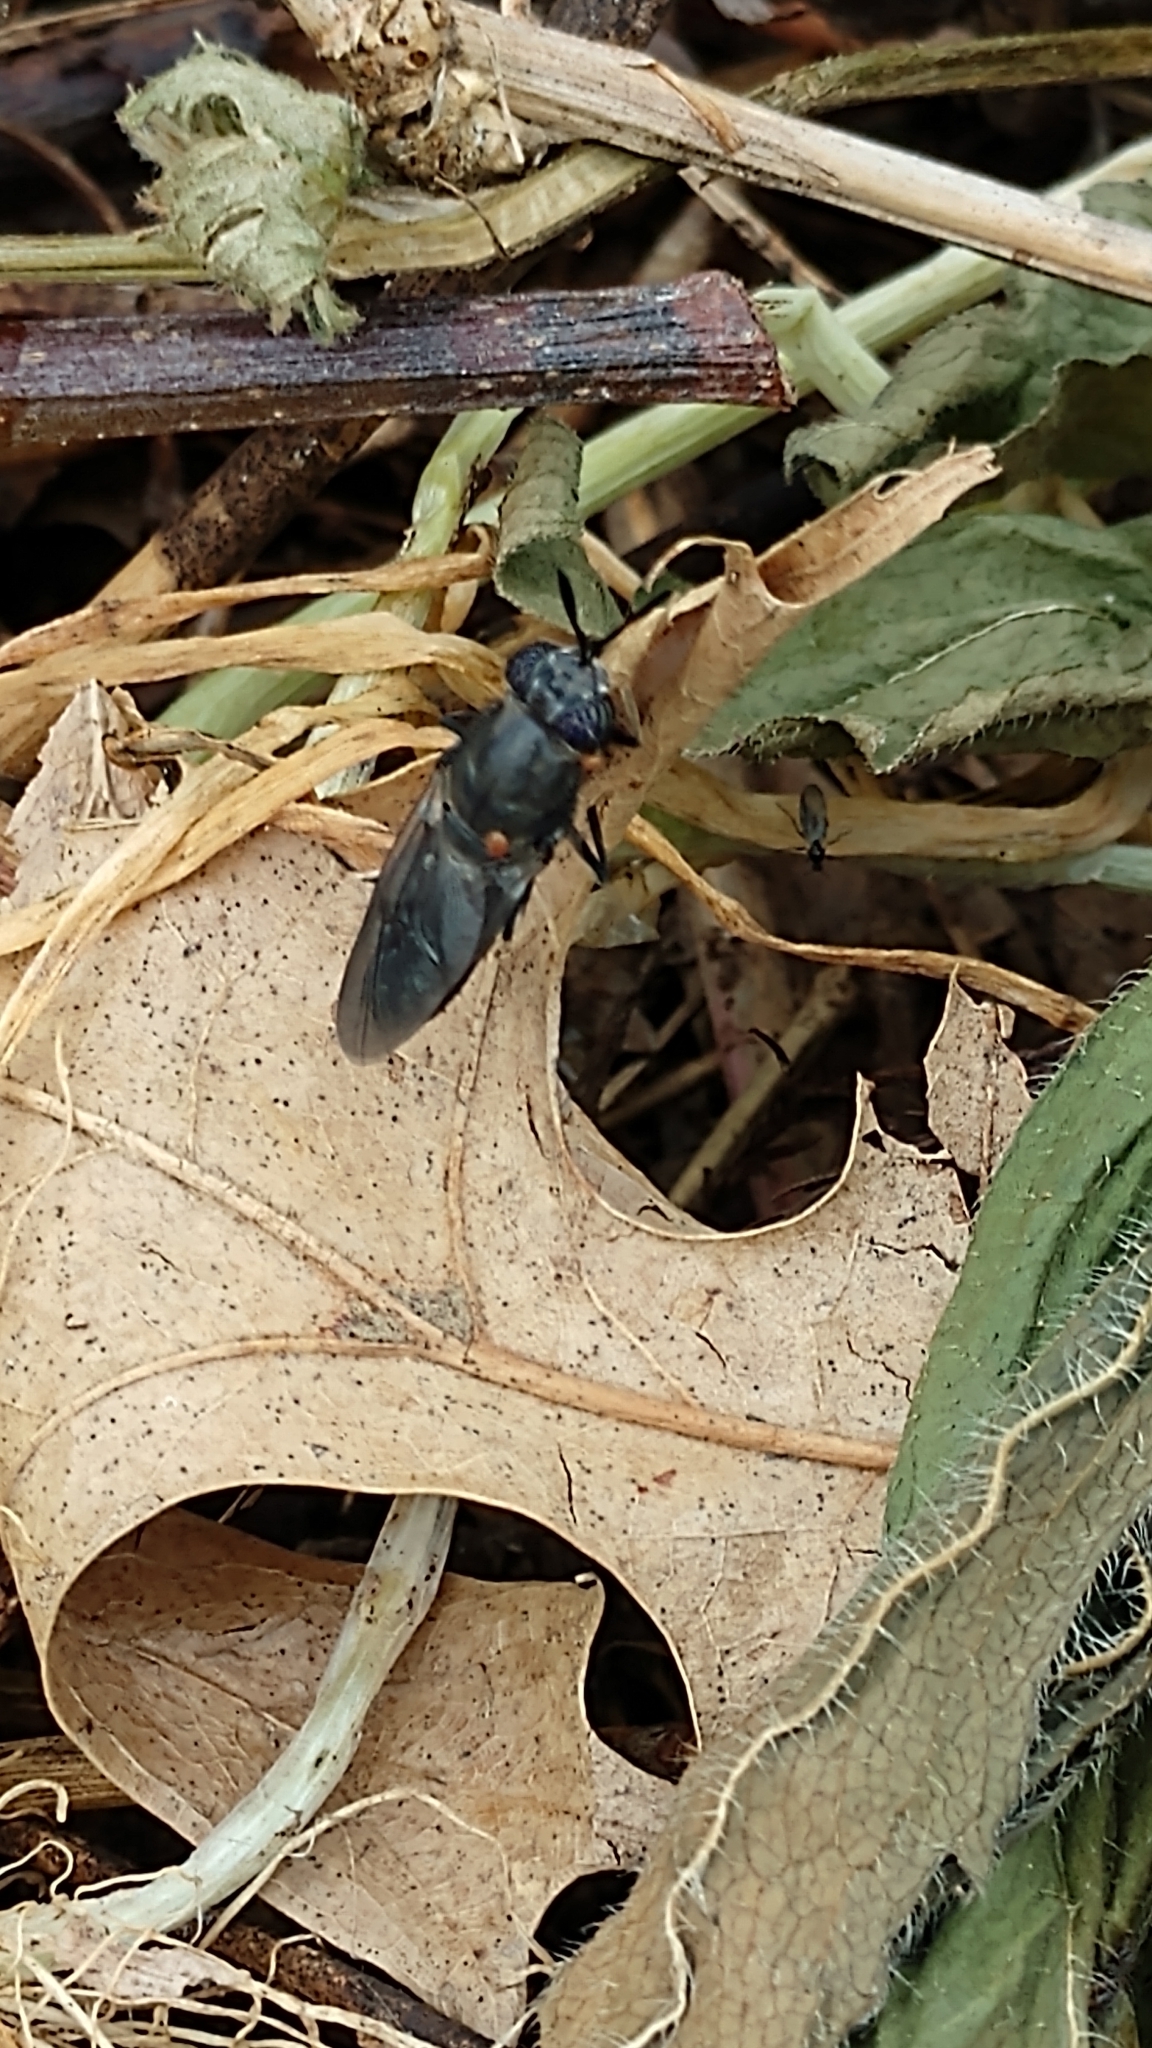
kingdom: Animalia
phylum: Arthropoda
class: Insecta
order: Diptera
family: Stratiomyidae
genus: Hermetia
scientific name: Hermetia illucens
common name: Black soldier fly
